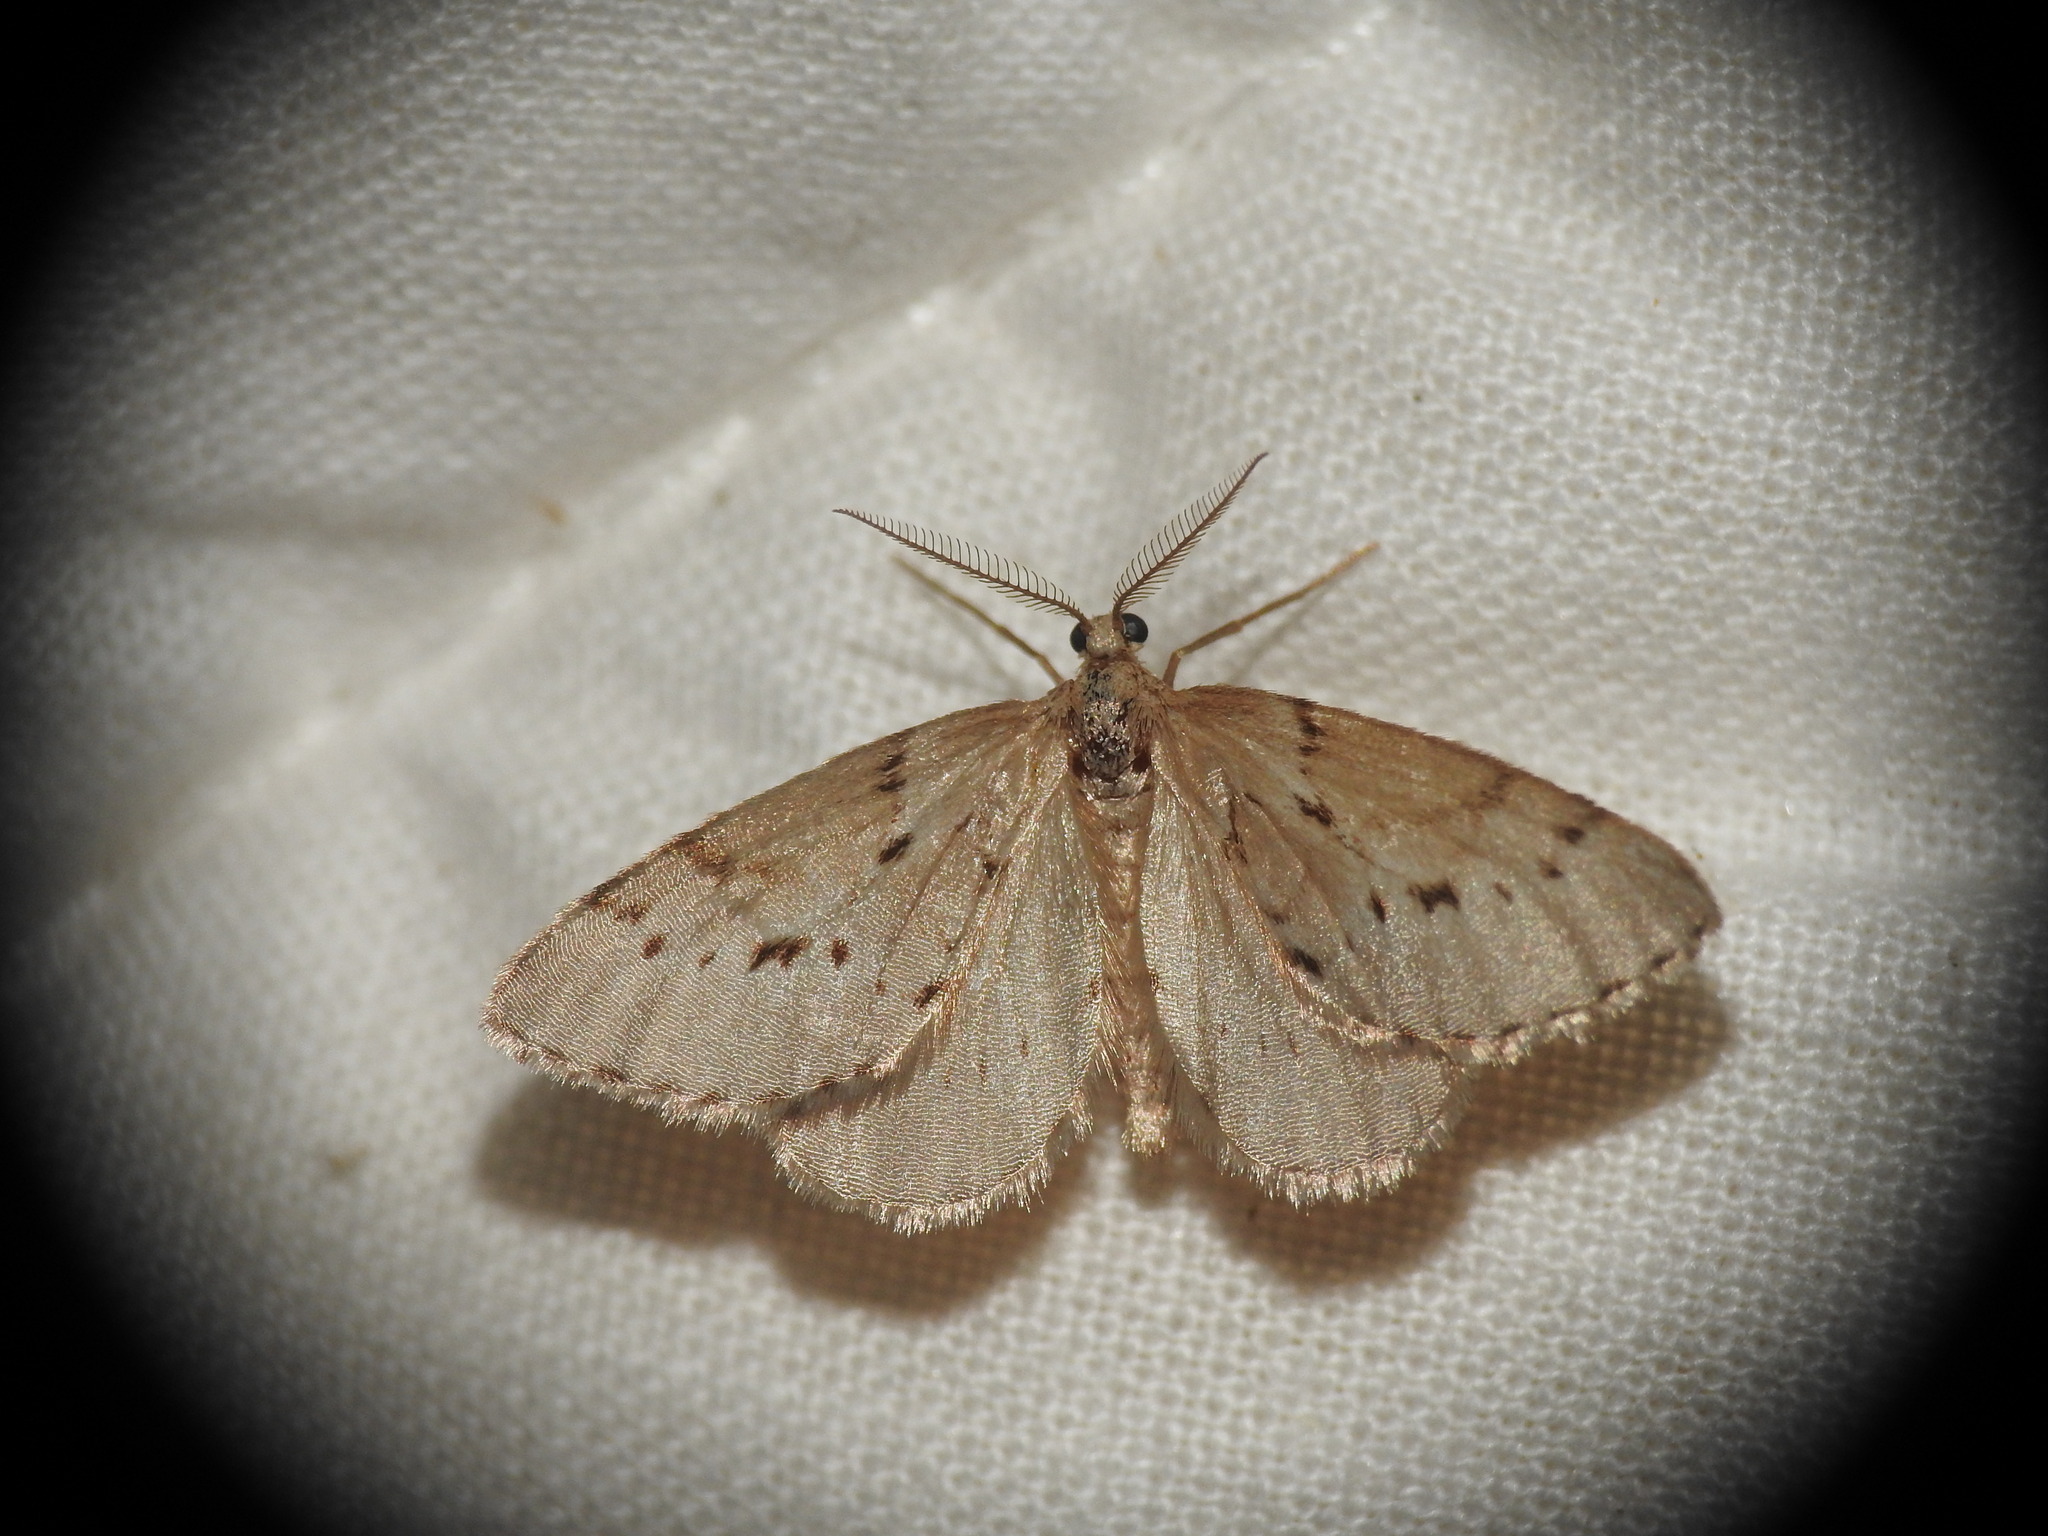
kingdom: Animalia
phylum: Arthropoda
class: Insecta
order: Lepidoptera
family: Geometridae
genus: Tephronia
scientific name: Tephronia oranaria
